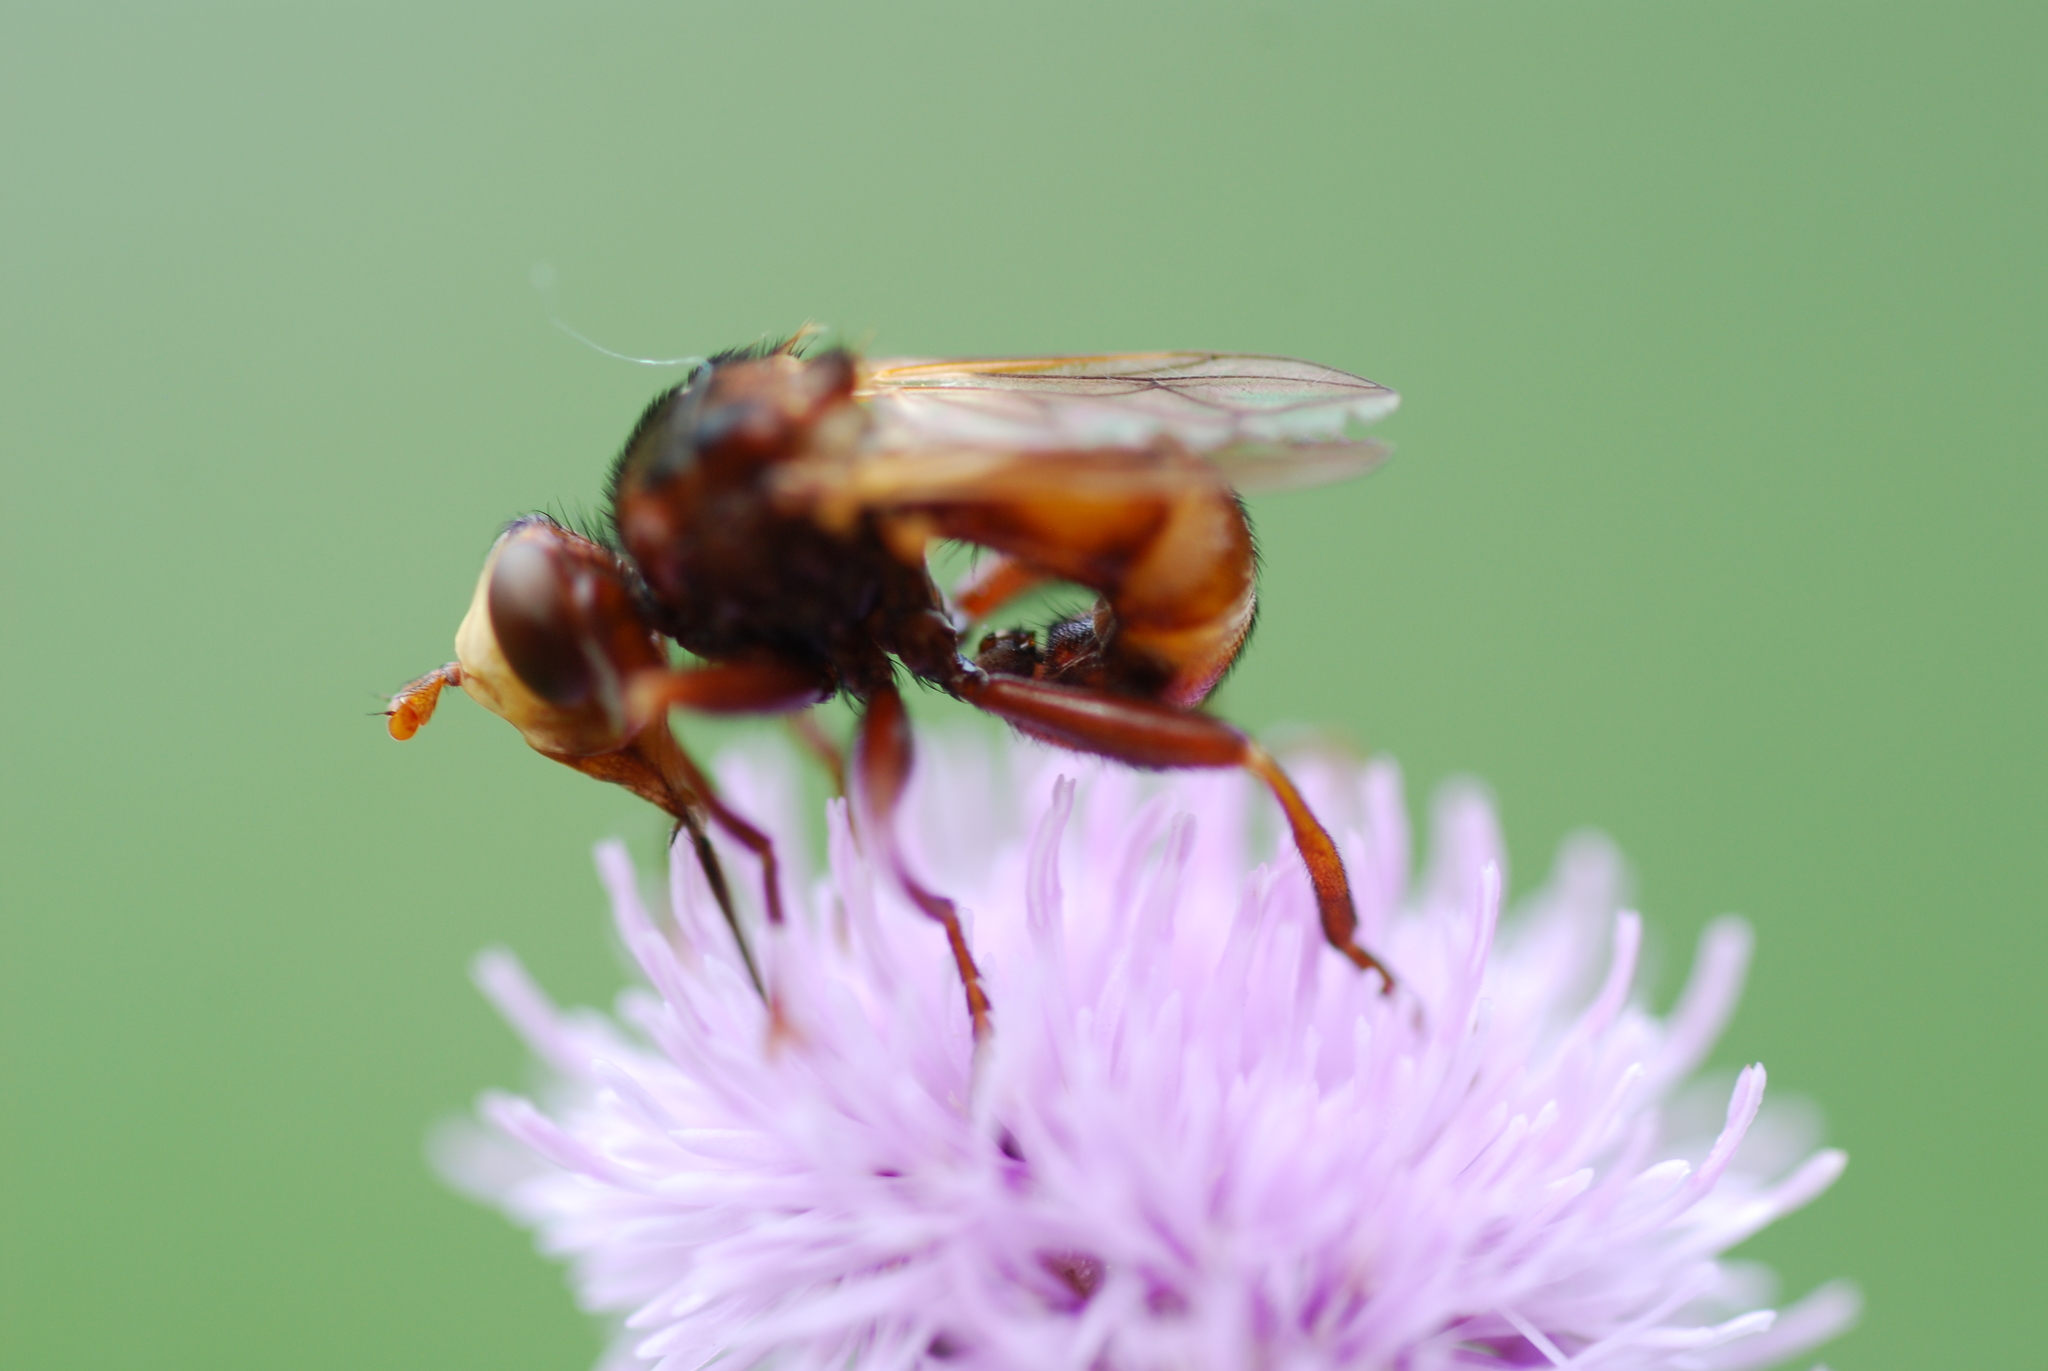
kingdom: Animalia
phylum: Arthropoda
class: Insecta
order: Diptera
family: Conopidae
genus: Sicus
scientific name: Sicus ferrugineus
